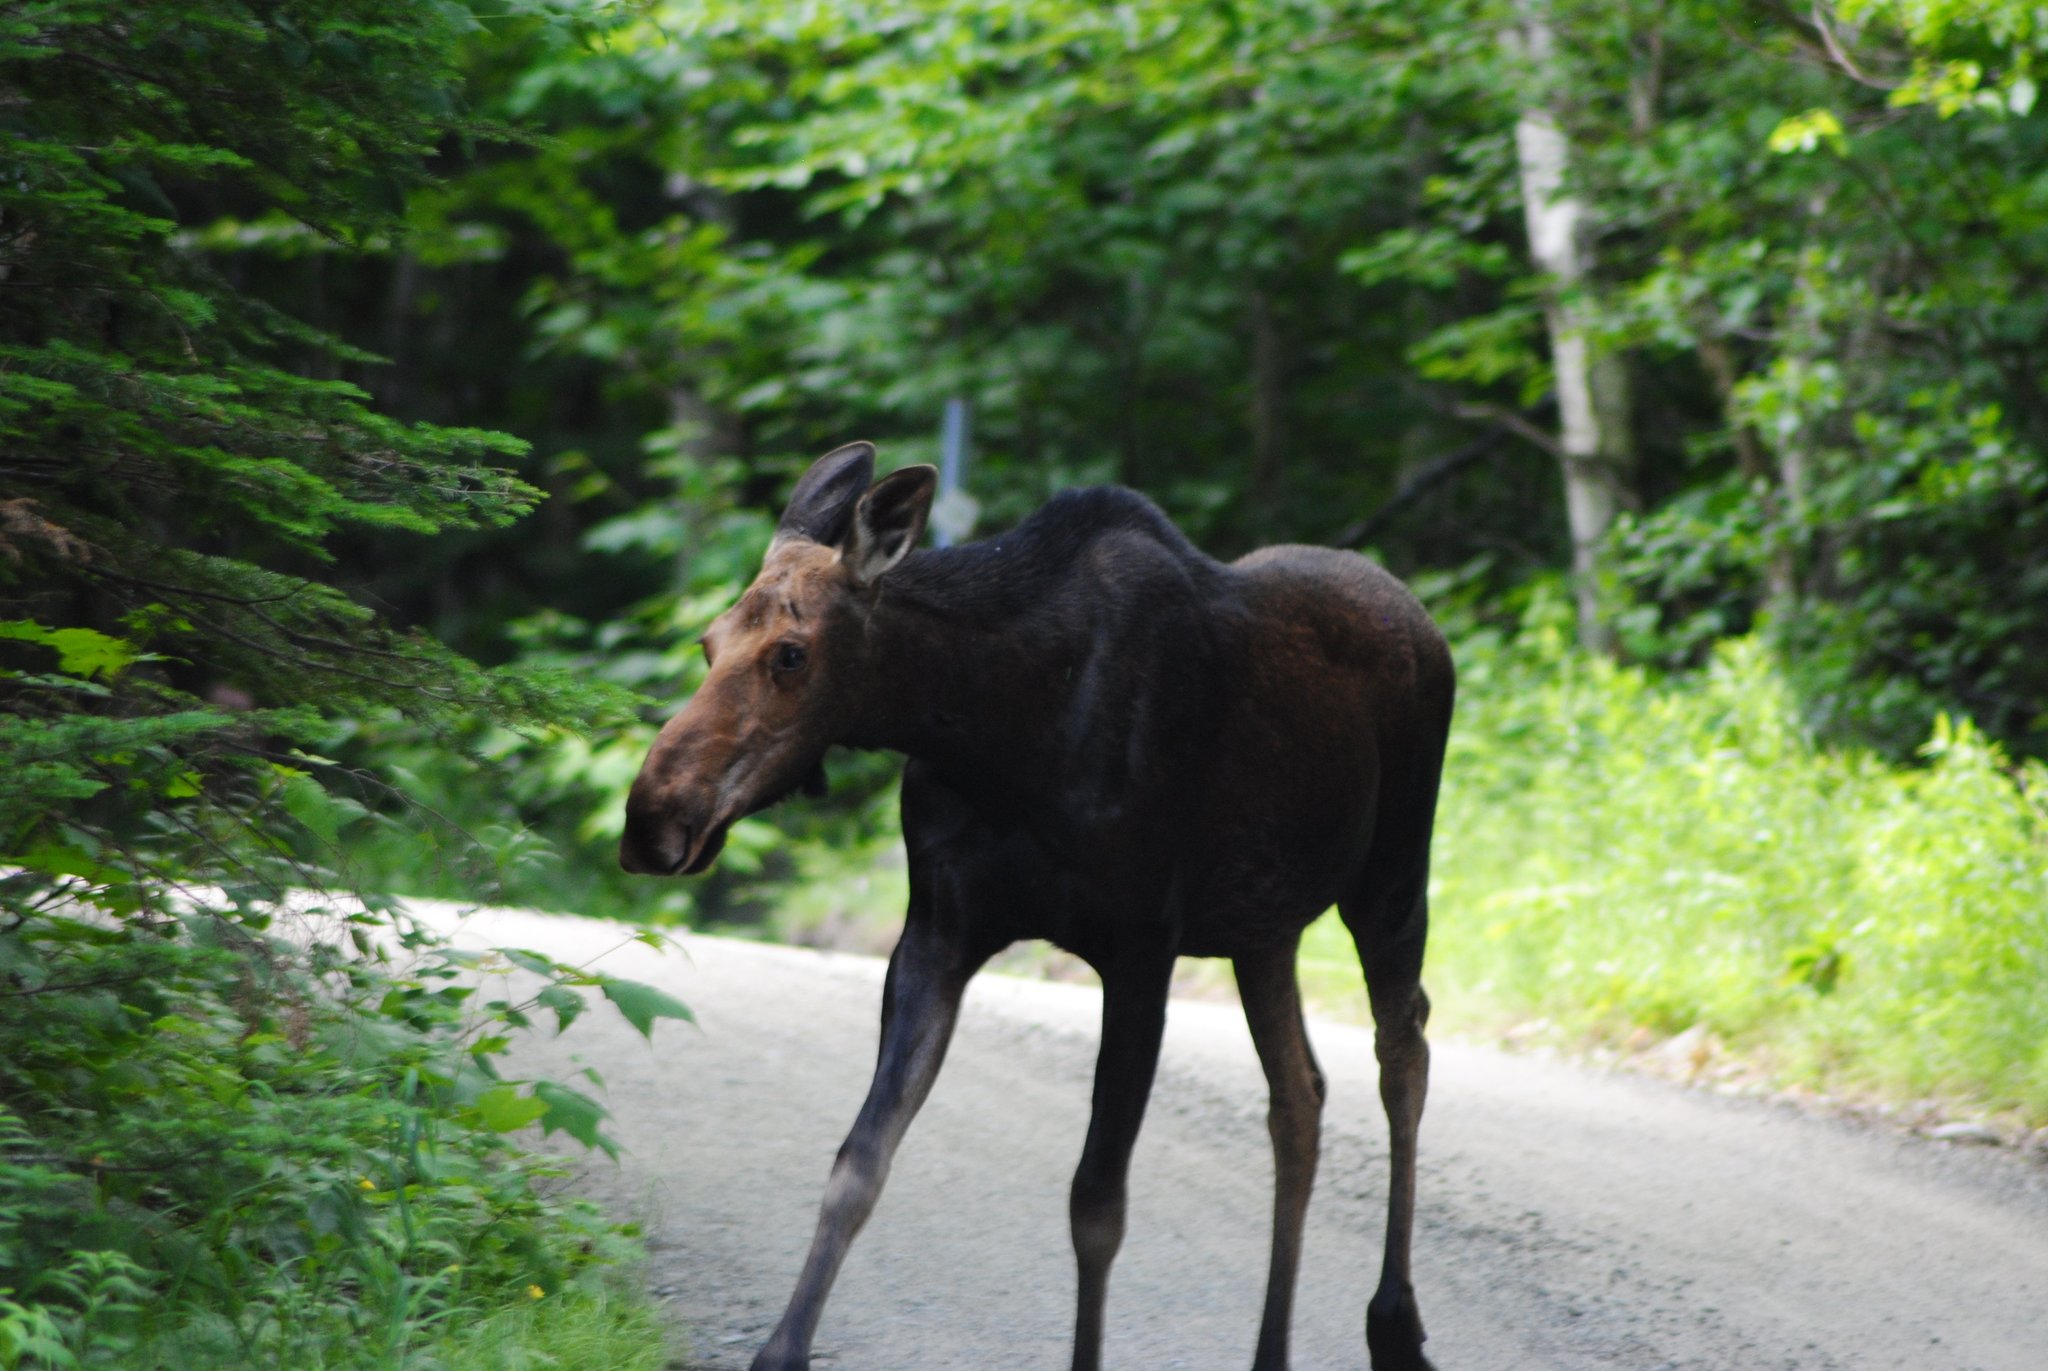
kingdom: Animalia
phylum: Chordata
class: Mammalia
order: Artiodactyla
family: Cervidae
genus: Alces
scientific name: Alces alces
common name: Moose
